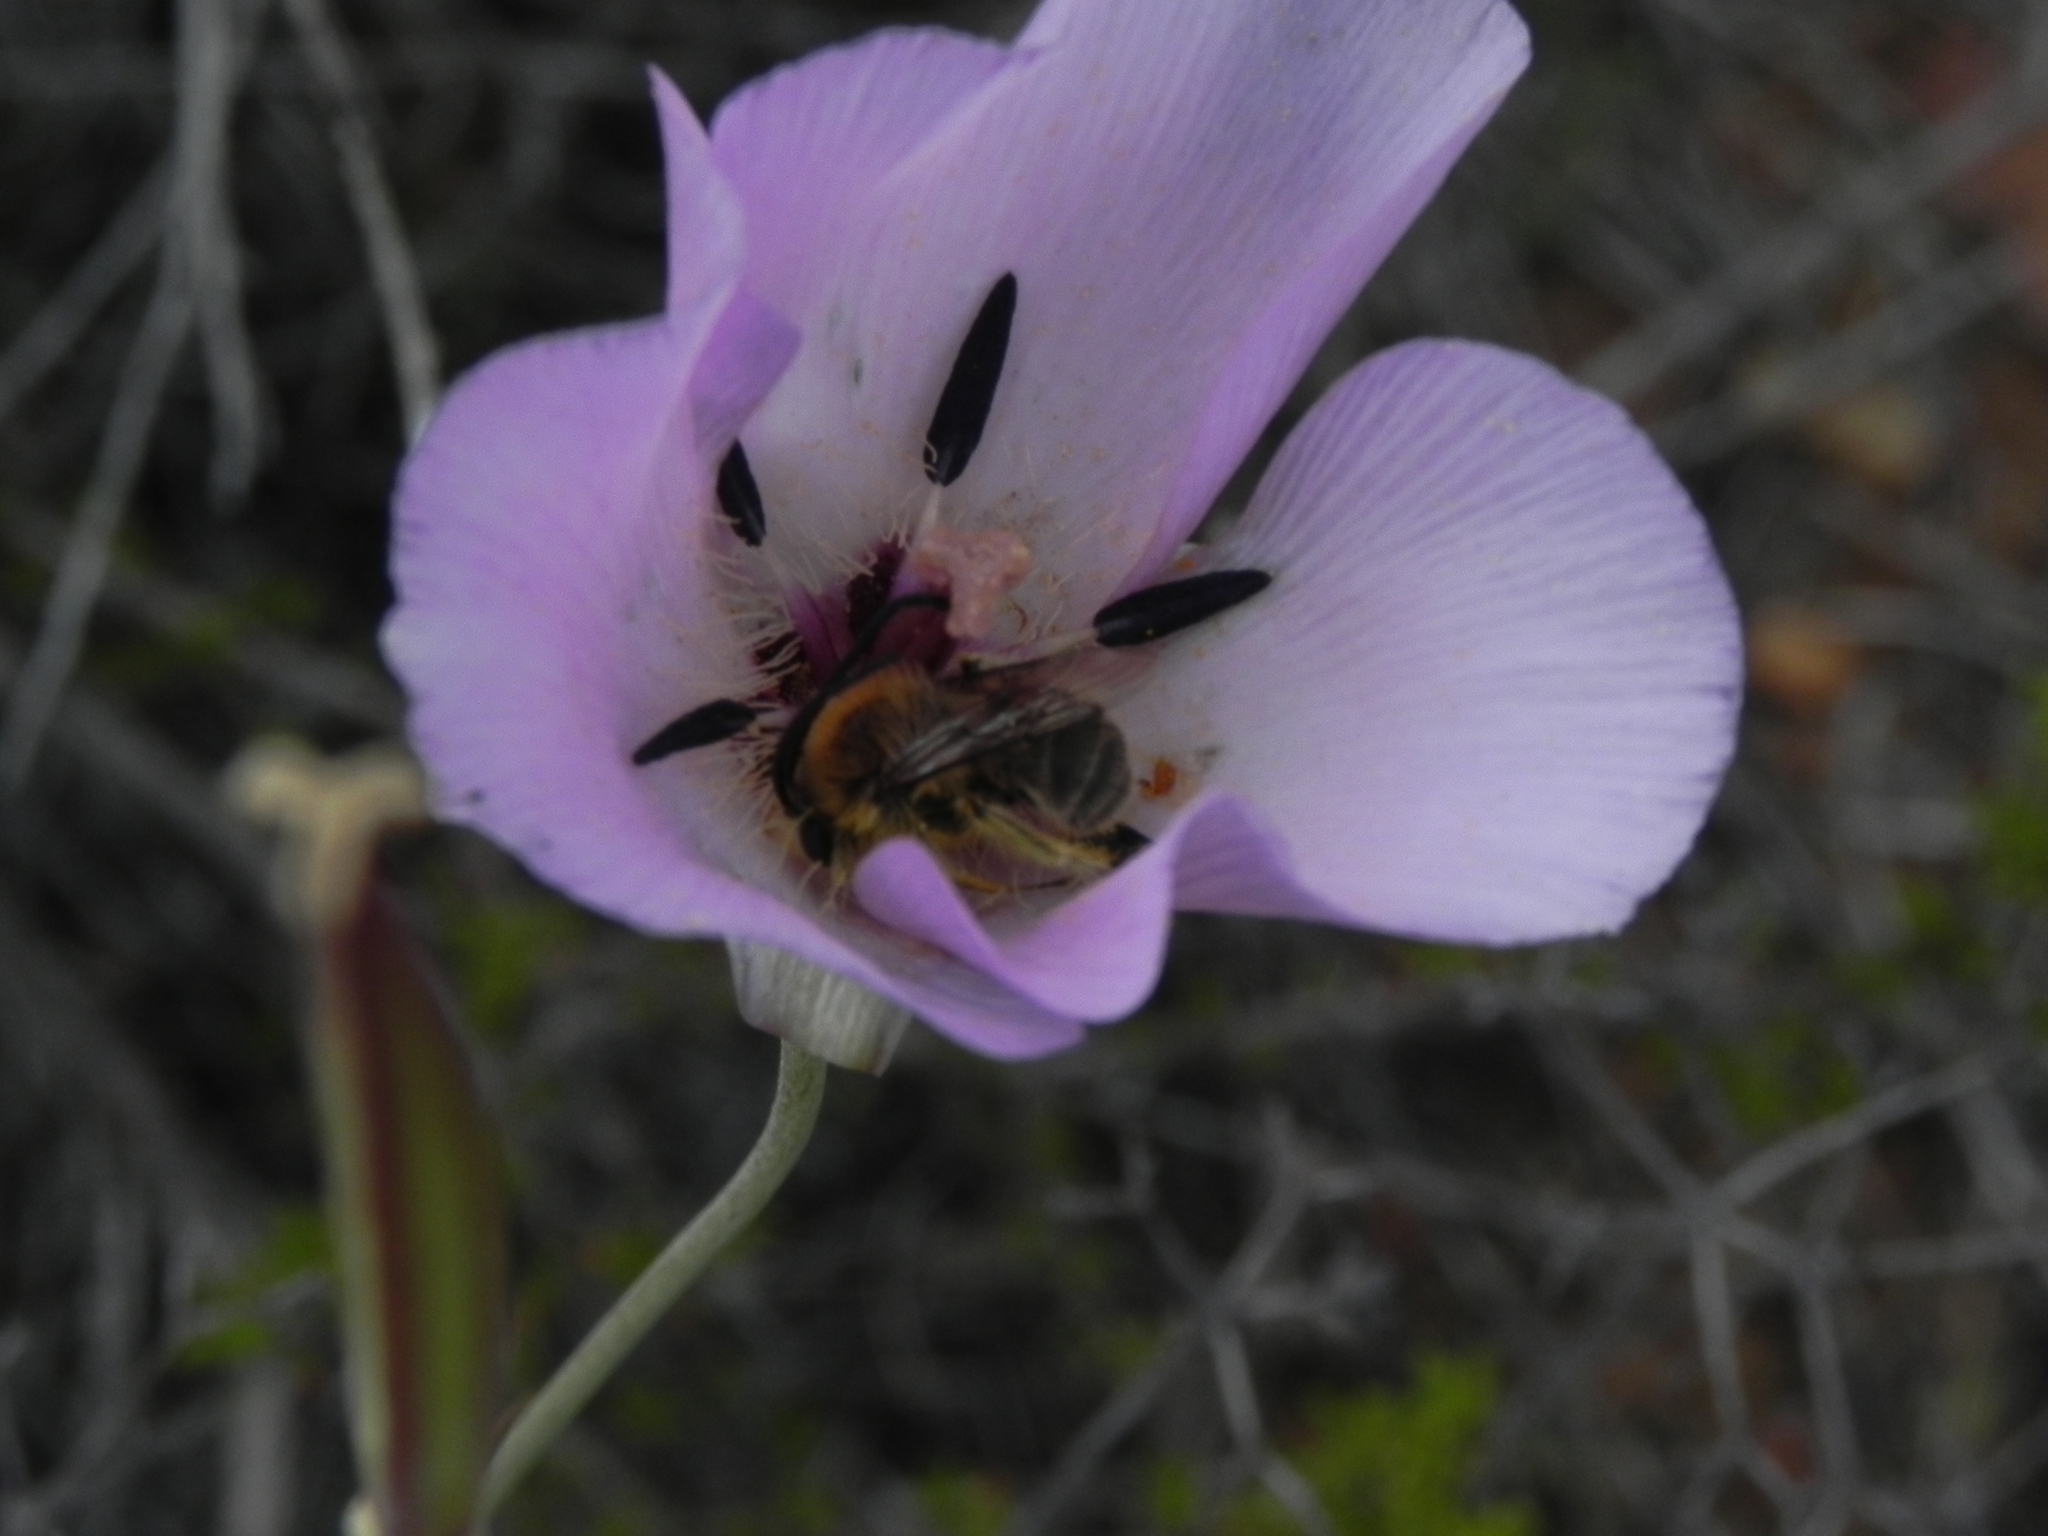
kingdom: Plantae
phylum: Tracheophyta
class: Liliopsida
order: Liliales
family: Liliaceae
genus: Calochortus
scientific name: Calochortus splendens
